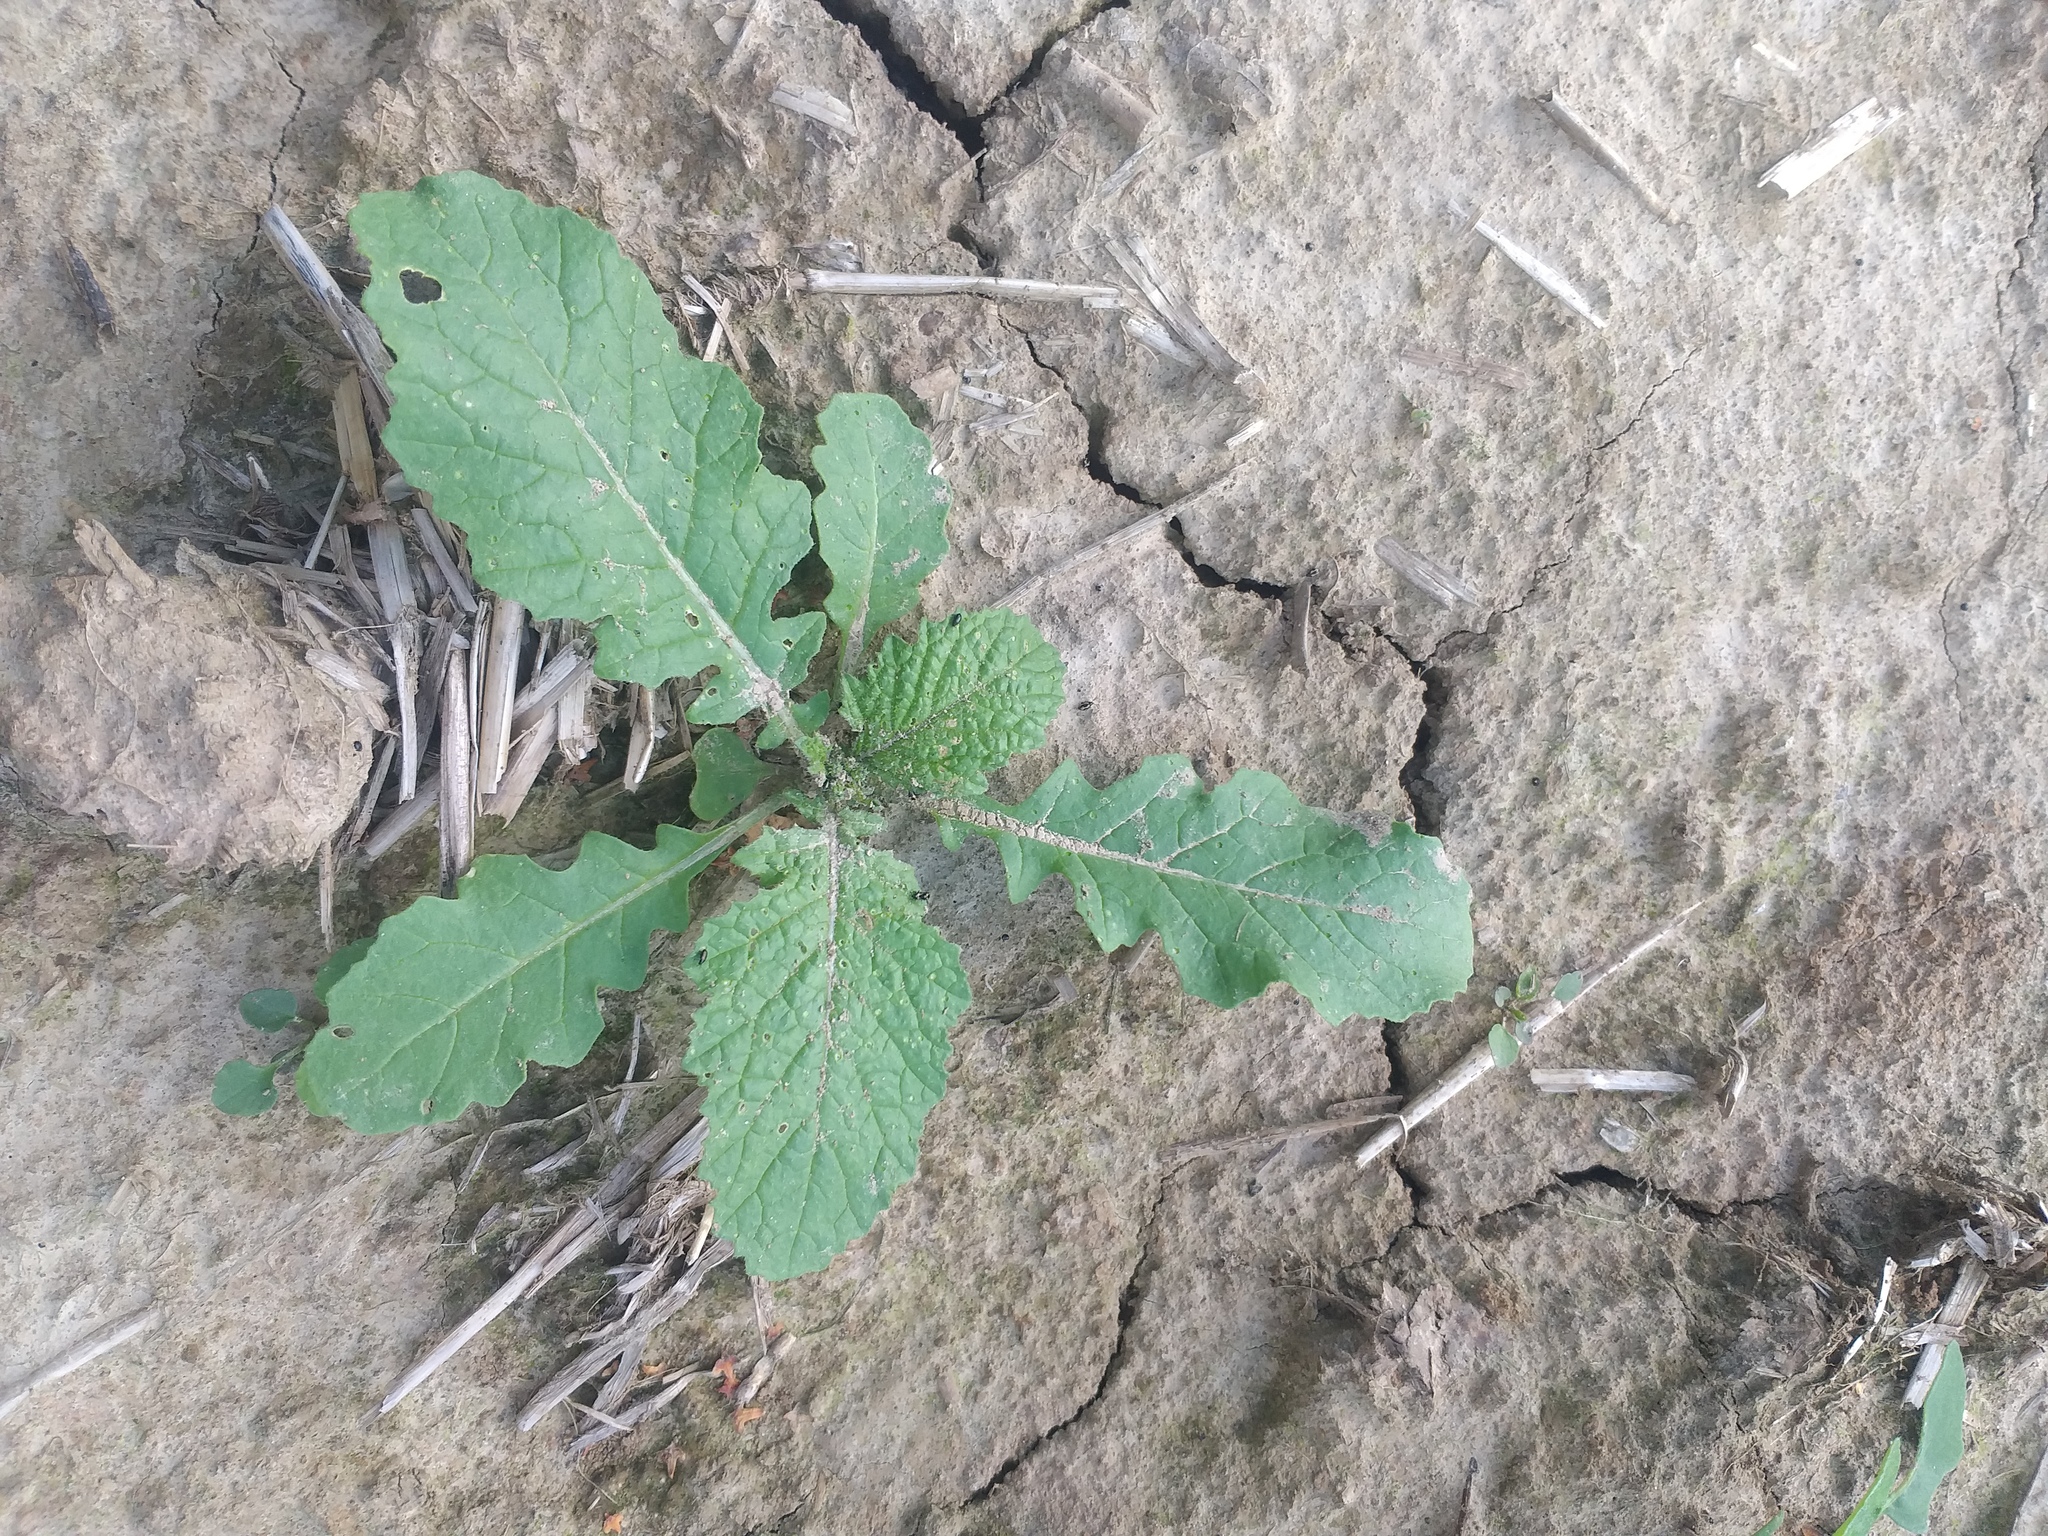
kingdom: Plantae
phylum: Tracheophyta
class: Magnoliopsida
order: Brassicales
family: Brassicaceae
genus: Sinapis
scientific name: Sinapis arvensis
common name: Charlock
